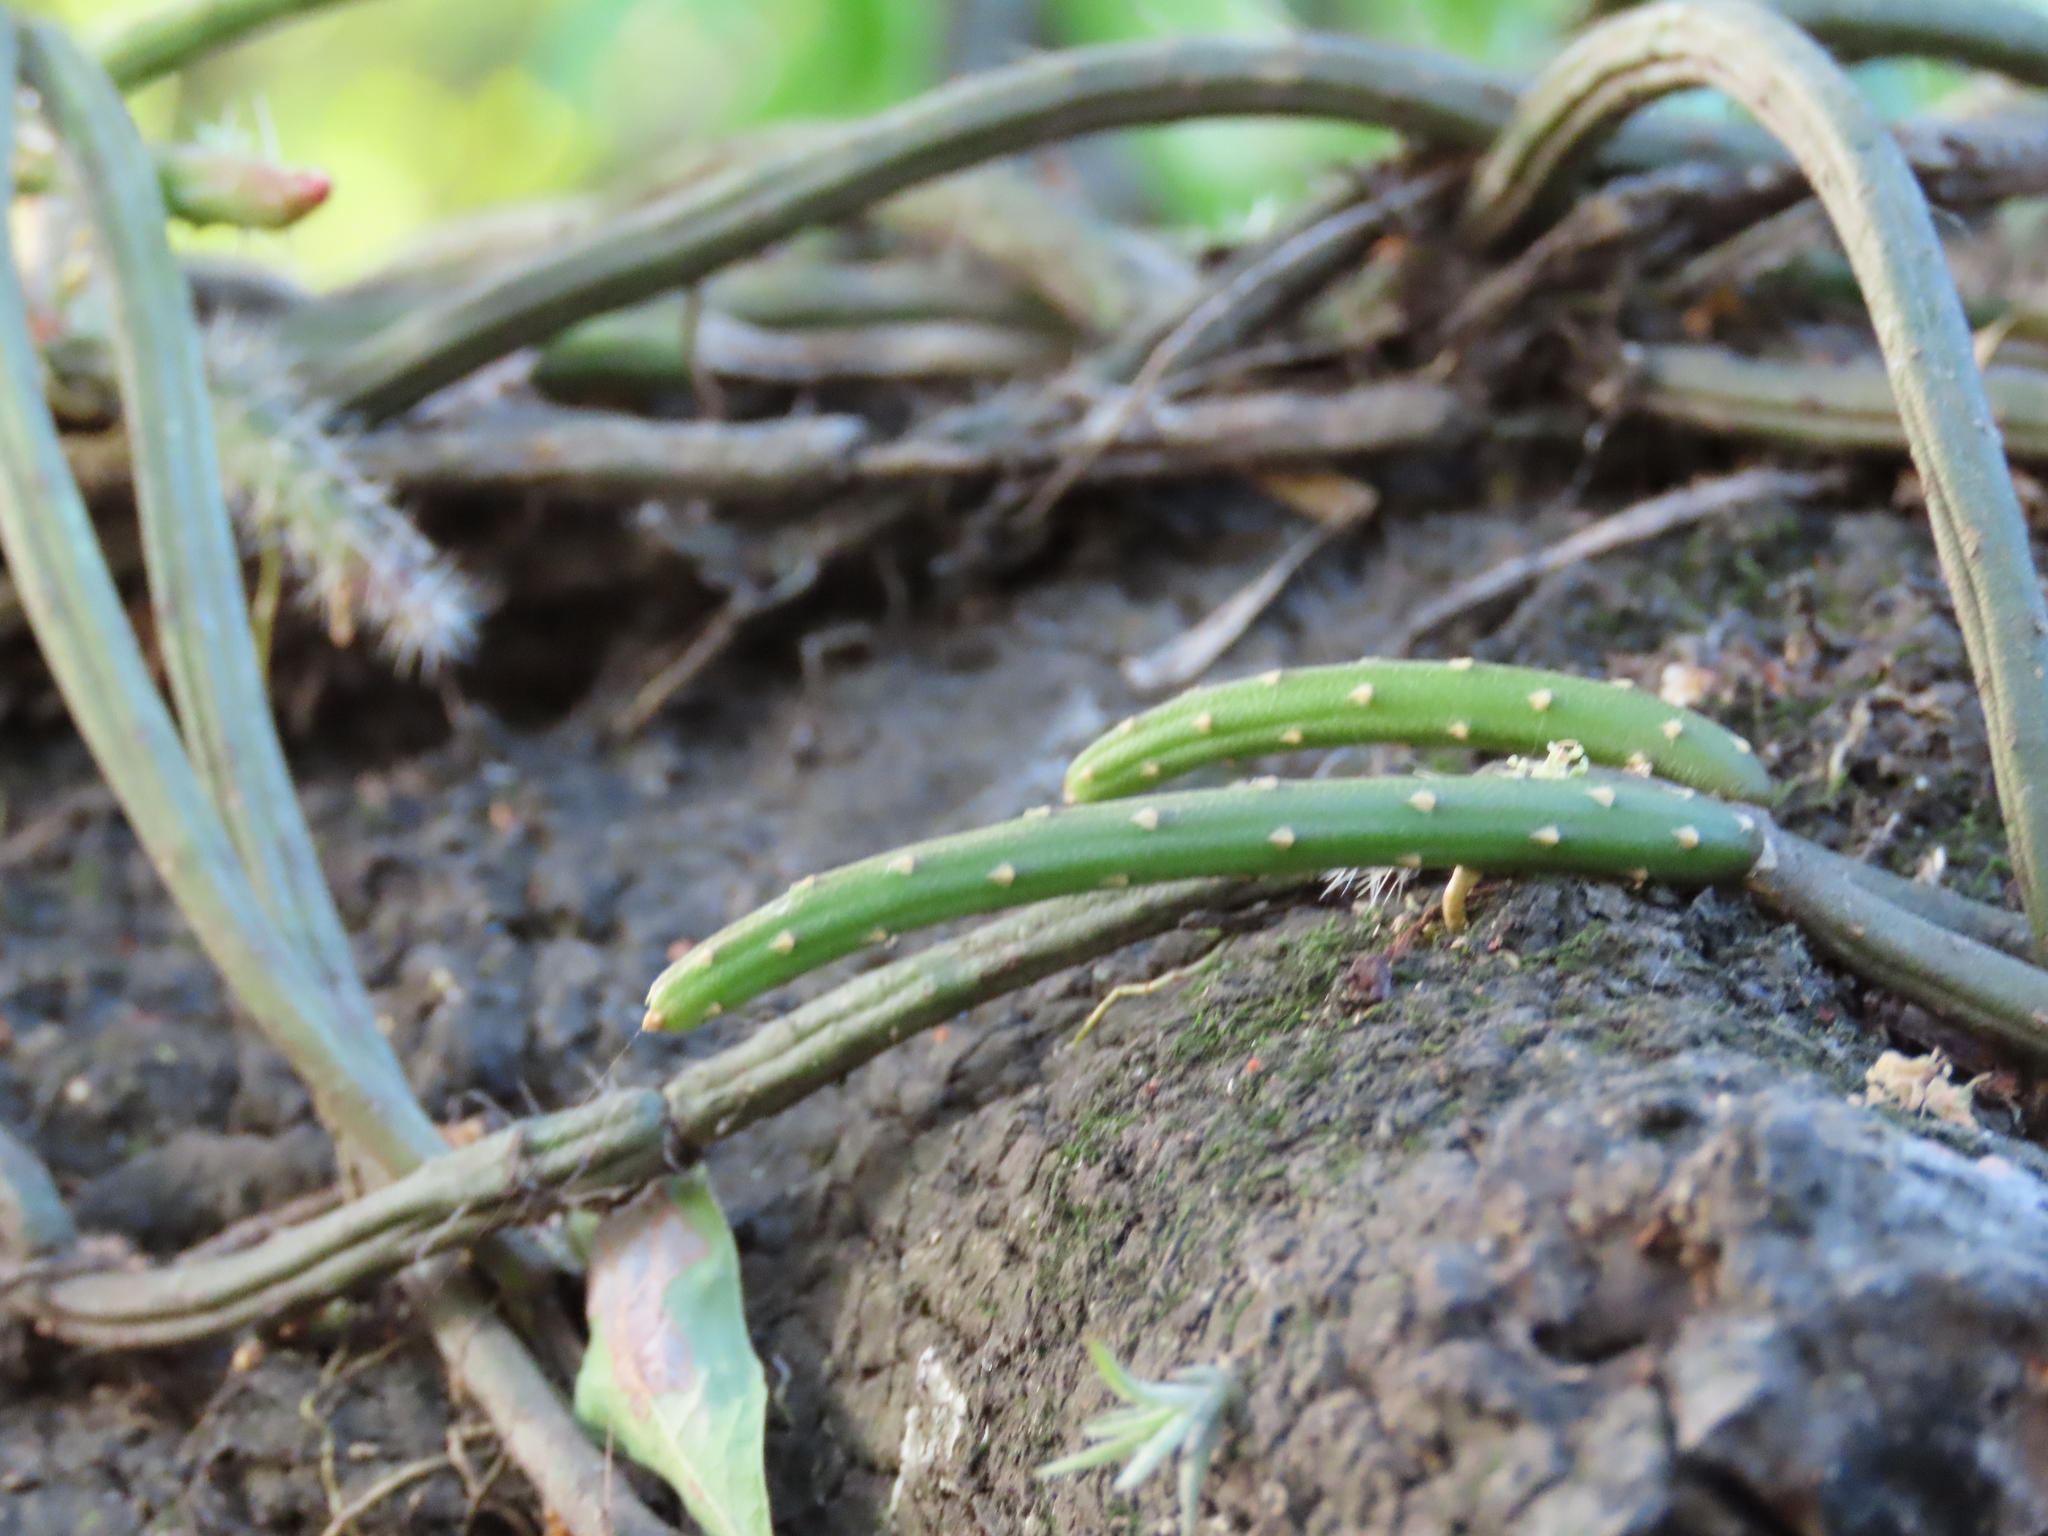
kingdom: Plantae
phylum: Tracheophyta
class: Magnoliopsida
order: Caryophyllales
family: Cactaceae
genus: Lepismium
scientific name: Lepismium lumbricoides
